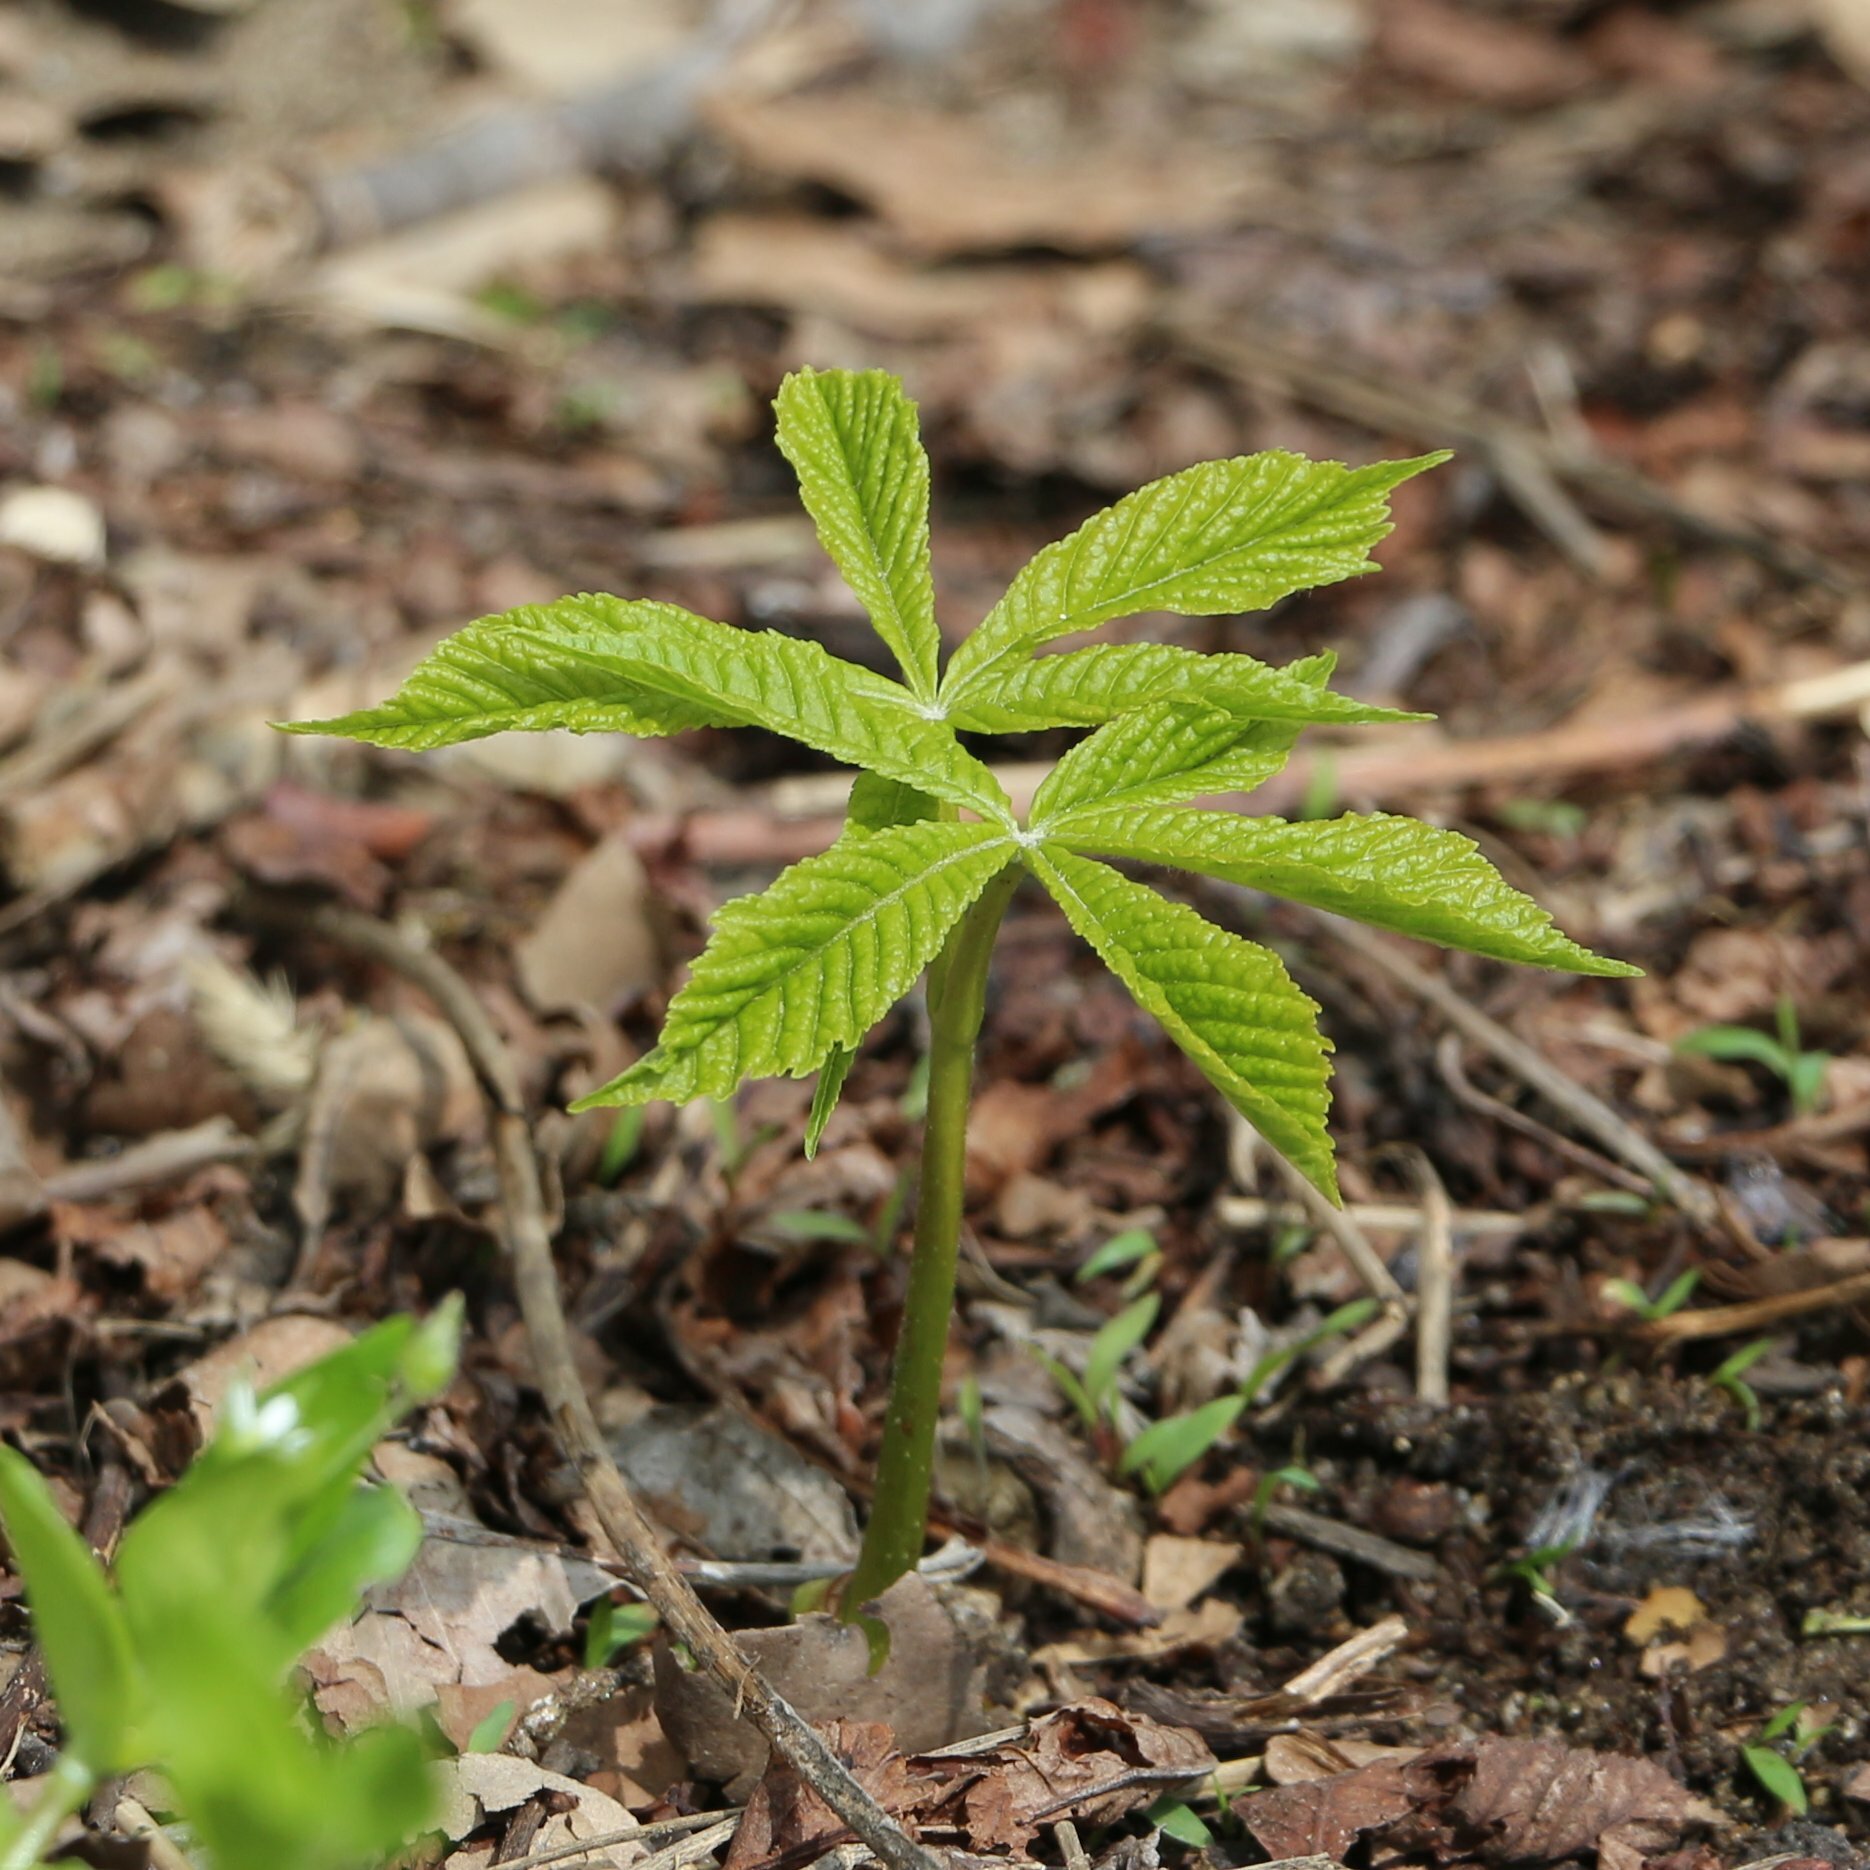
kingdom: Plantae
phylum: Tracheophyta
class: Magnoliopsida
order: Sapindales
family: Sapindaceae
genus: Aesculus
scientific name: Aesculus hippocastanum
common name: Horse-chestnut
